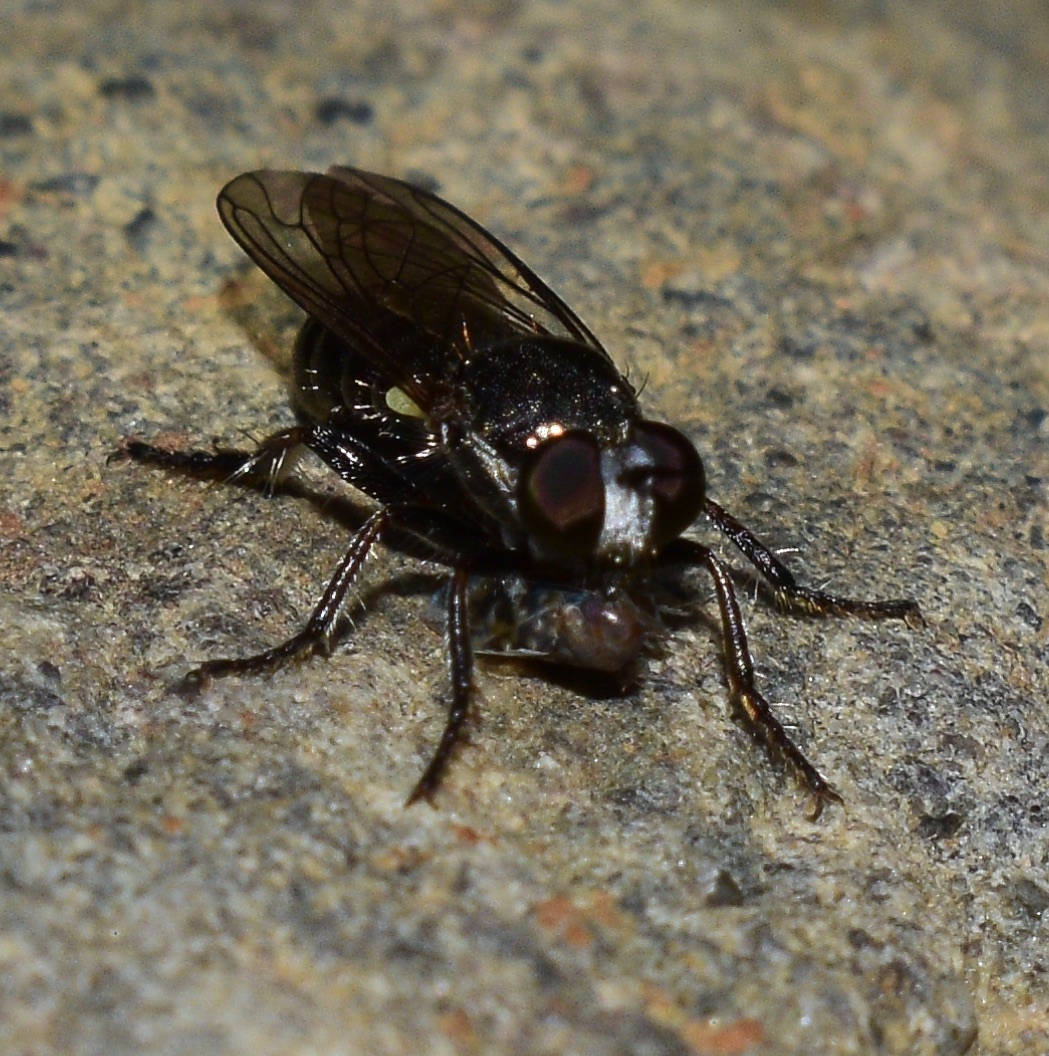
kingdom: Animalia
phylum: Arthropoda
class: Insecta
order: Diptera
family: Asilidae
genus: Atomosia
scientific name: Atomosia puella
